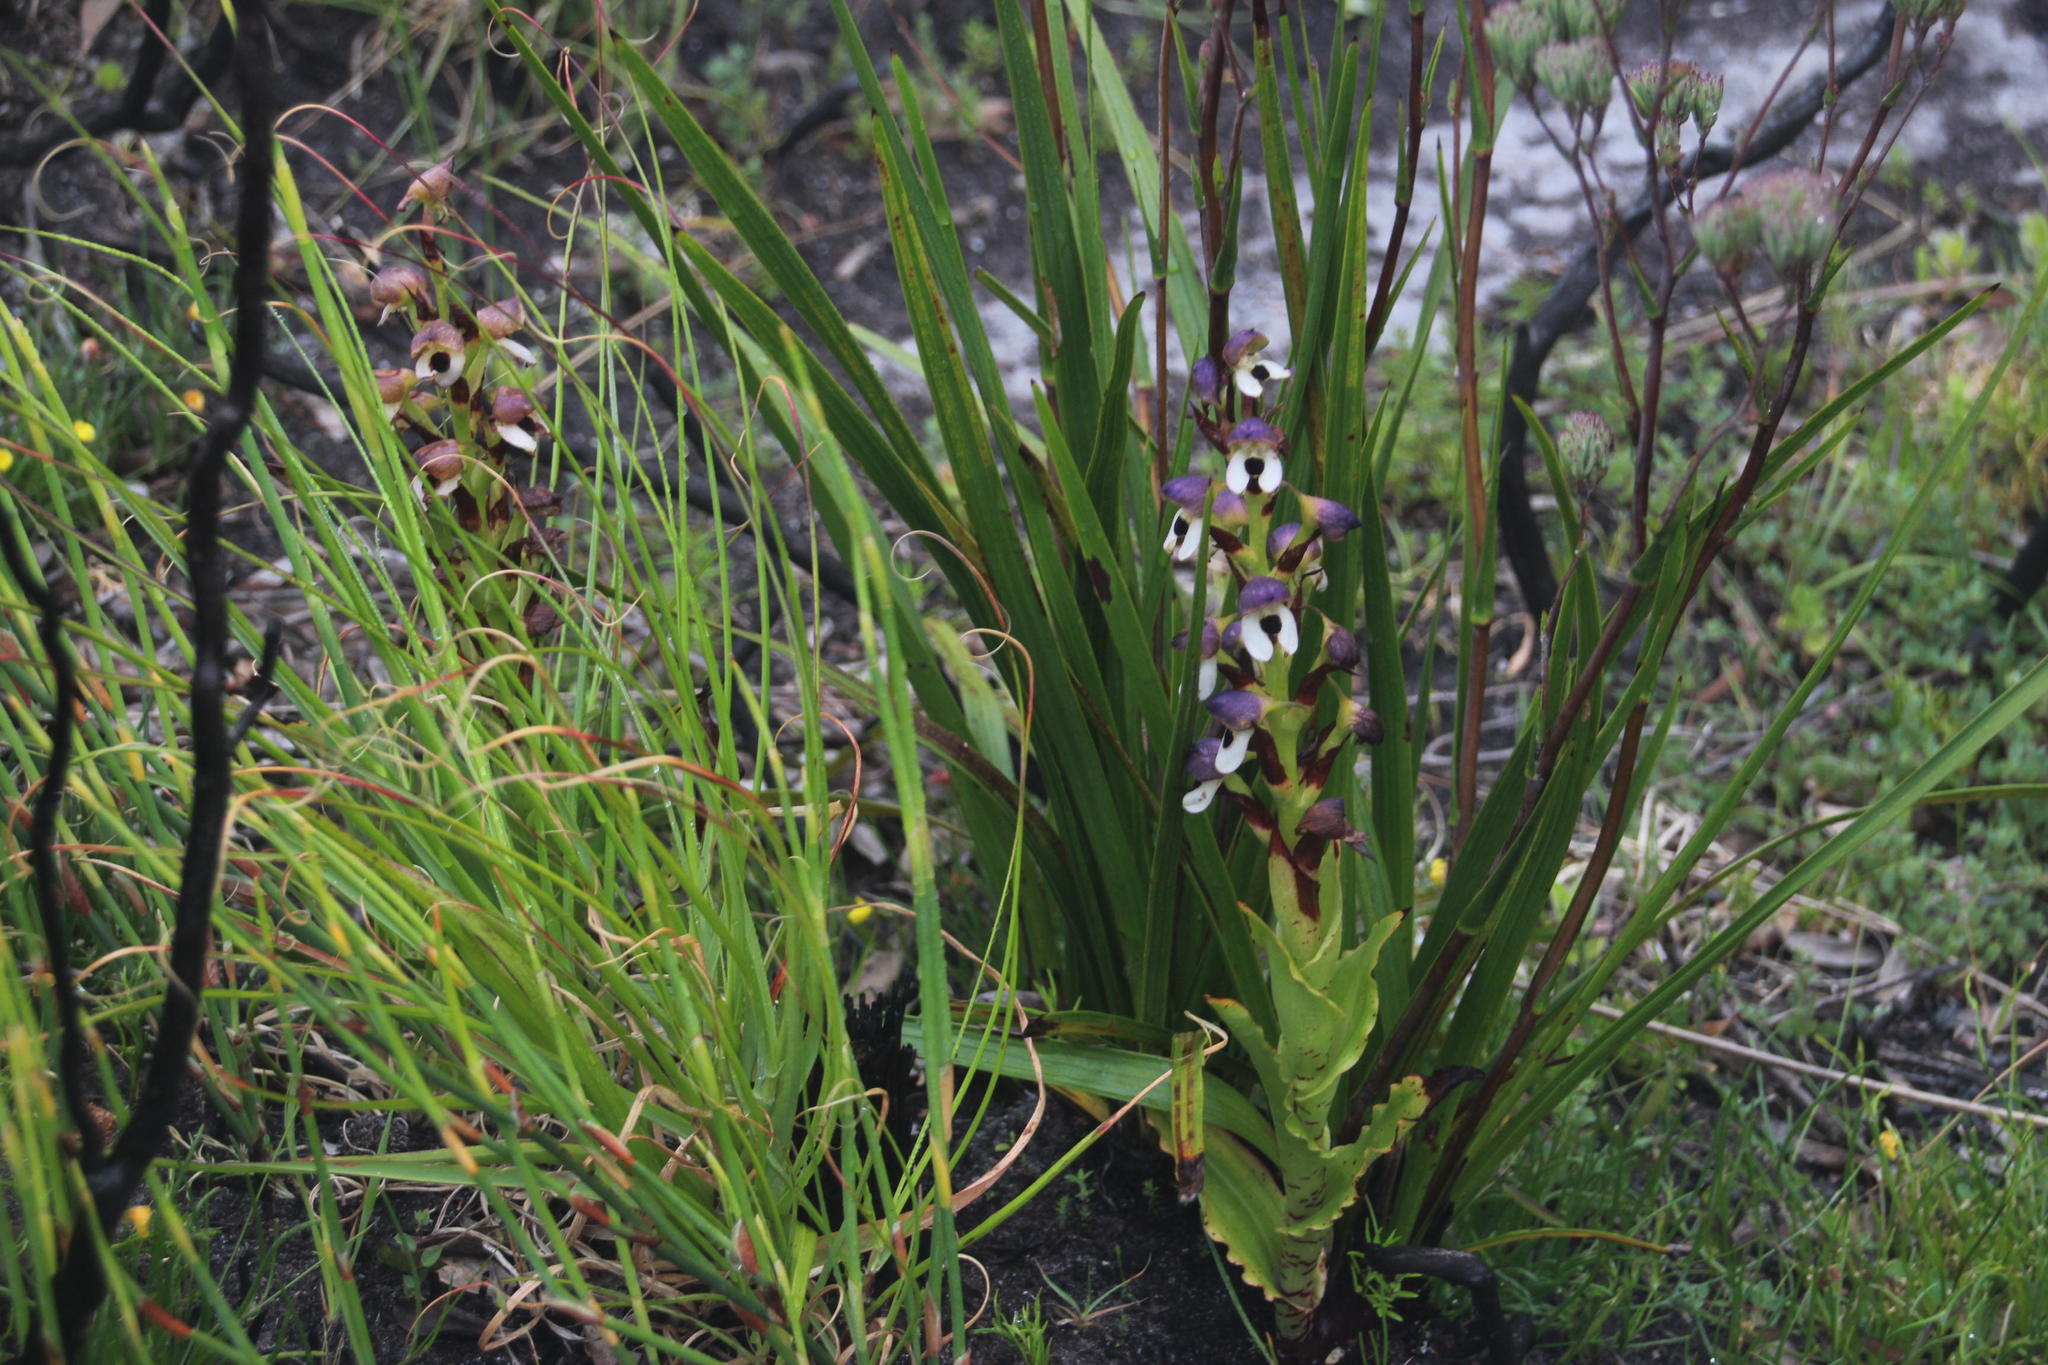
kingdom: Plantae
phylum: Tracheophyta
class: Liliopsida
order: Asparagales
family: Orchidaceae
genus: Disa
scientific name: Disa cornuta
